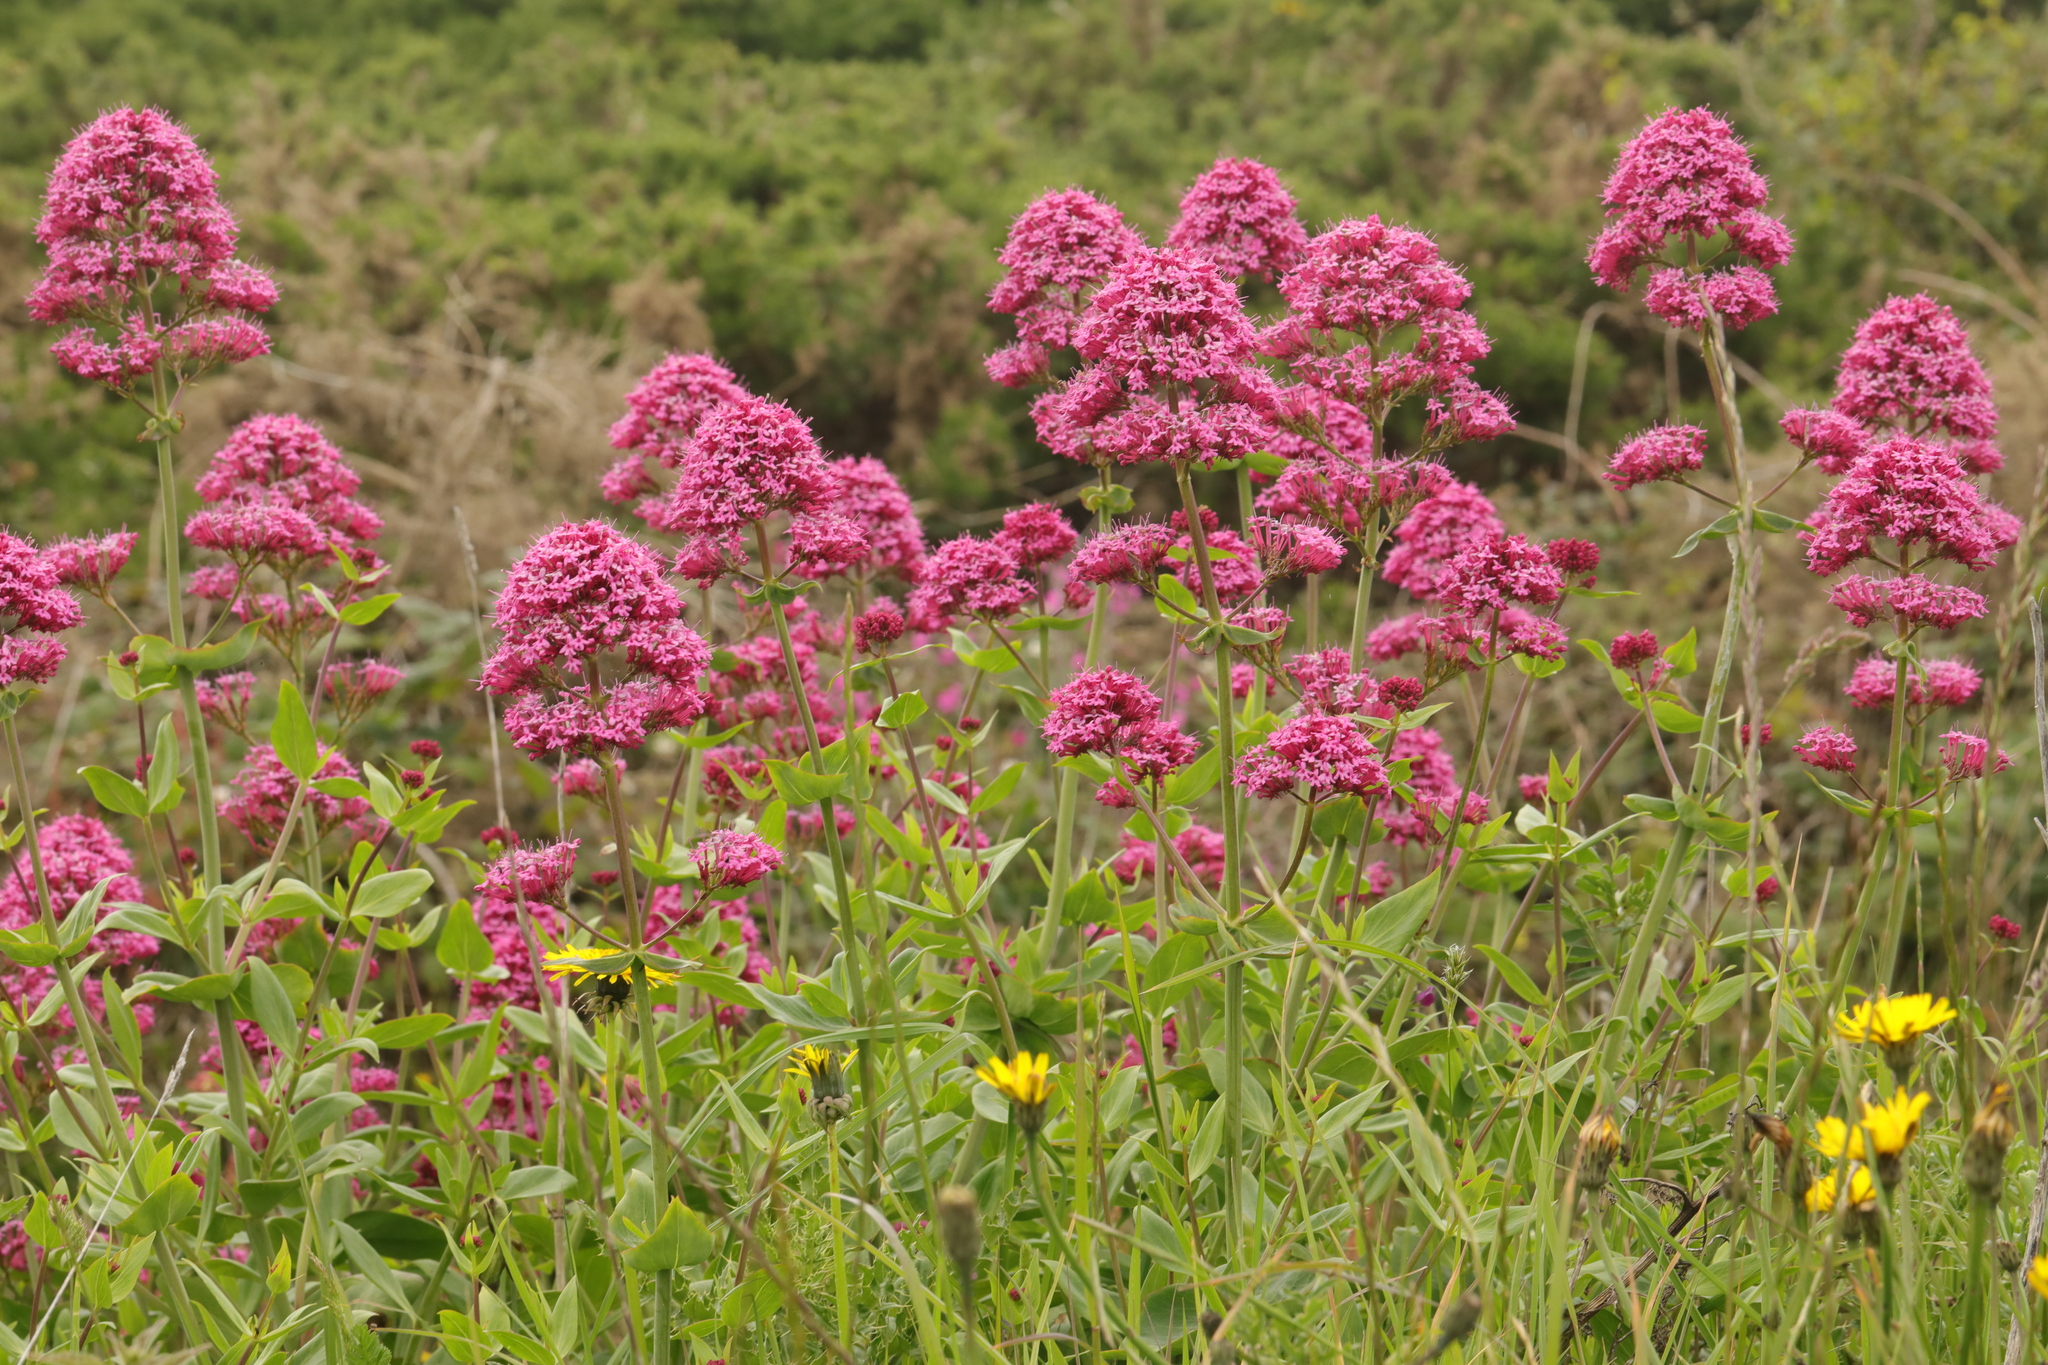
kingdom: Plantae
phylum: Tracheophyta
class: Magnoliopsida
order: Dipsacales
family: Caprifoliaceae
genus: Centranthus
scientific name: Centranthus ruber
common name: Red valerian
